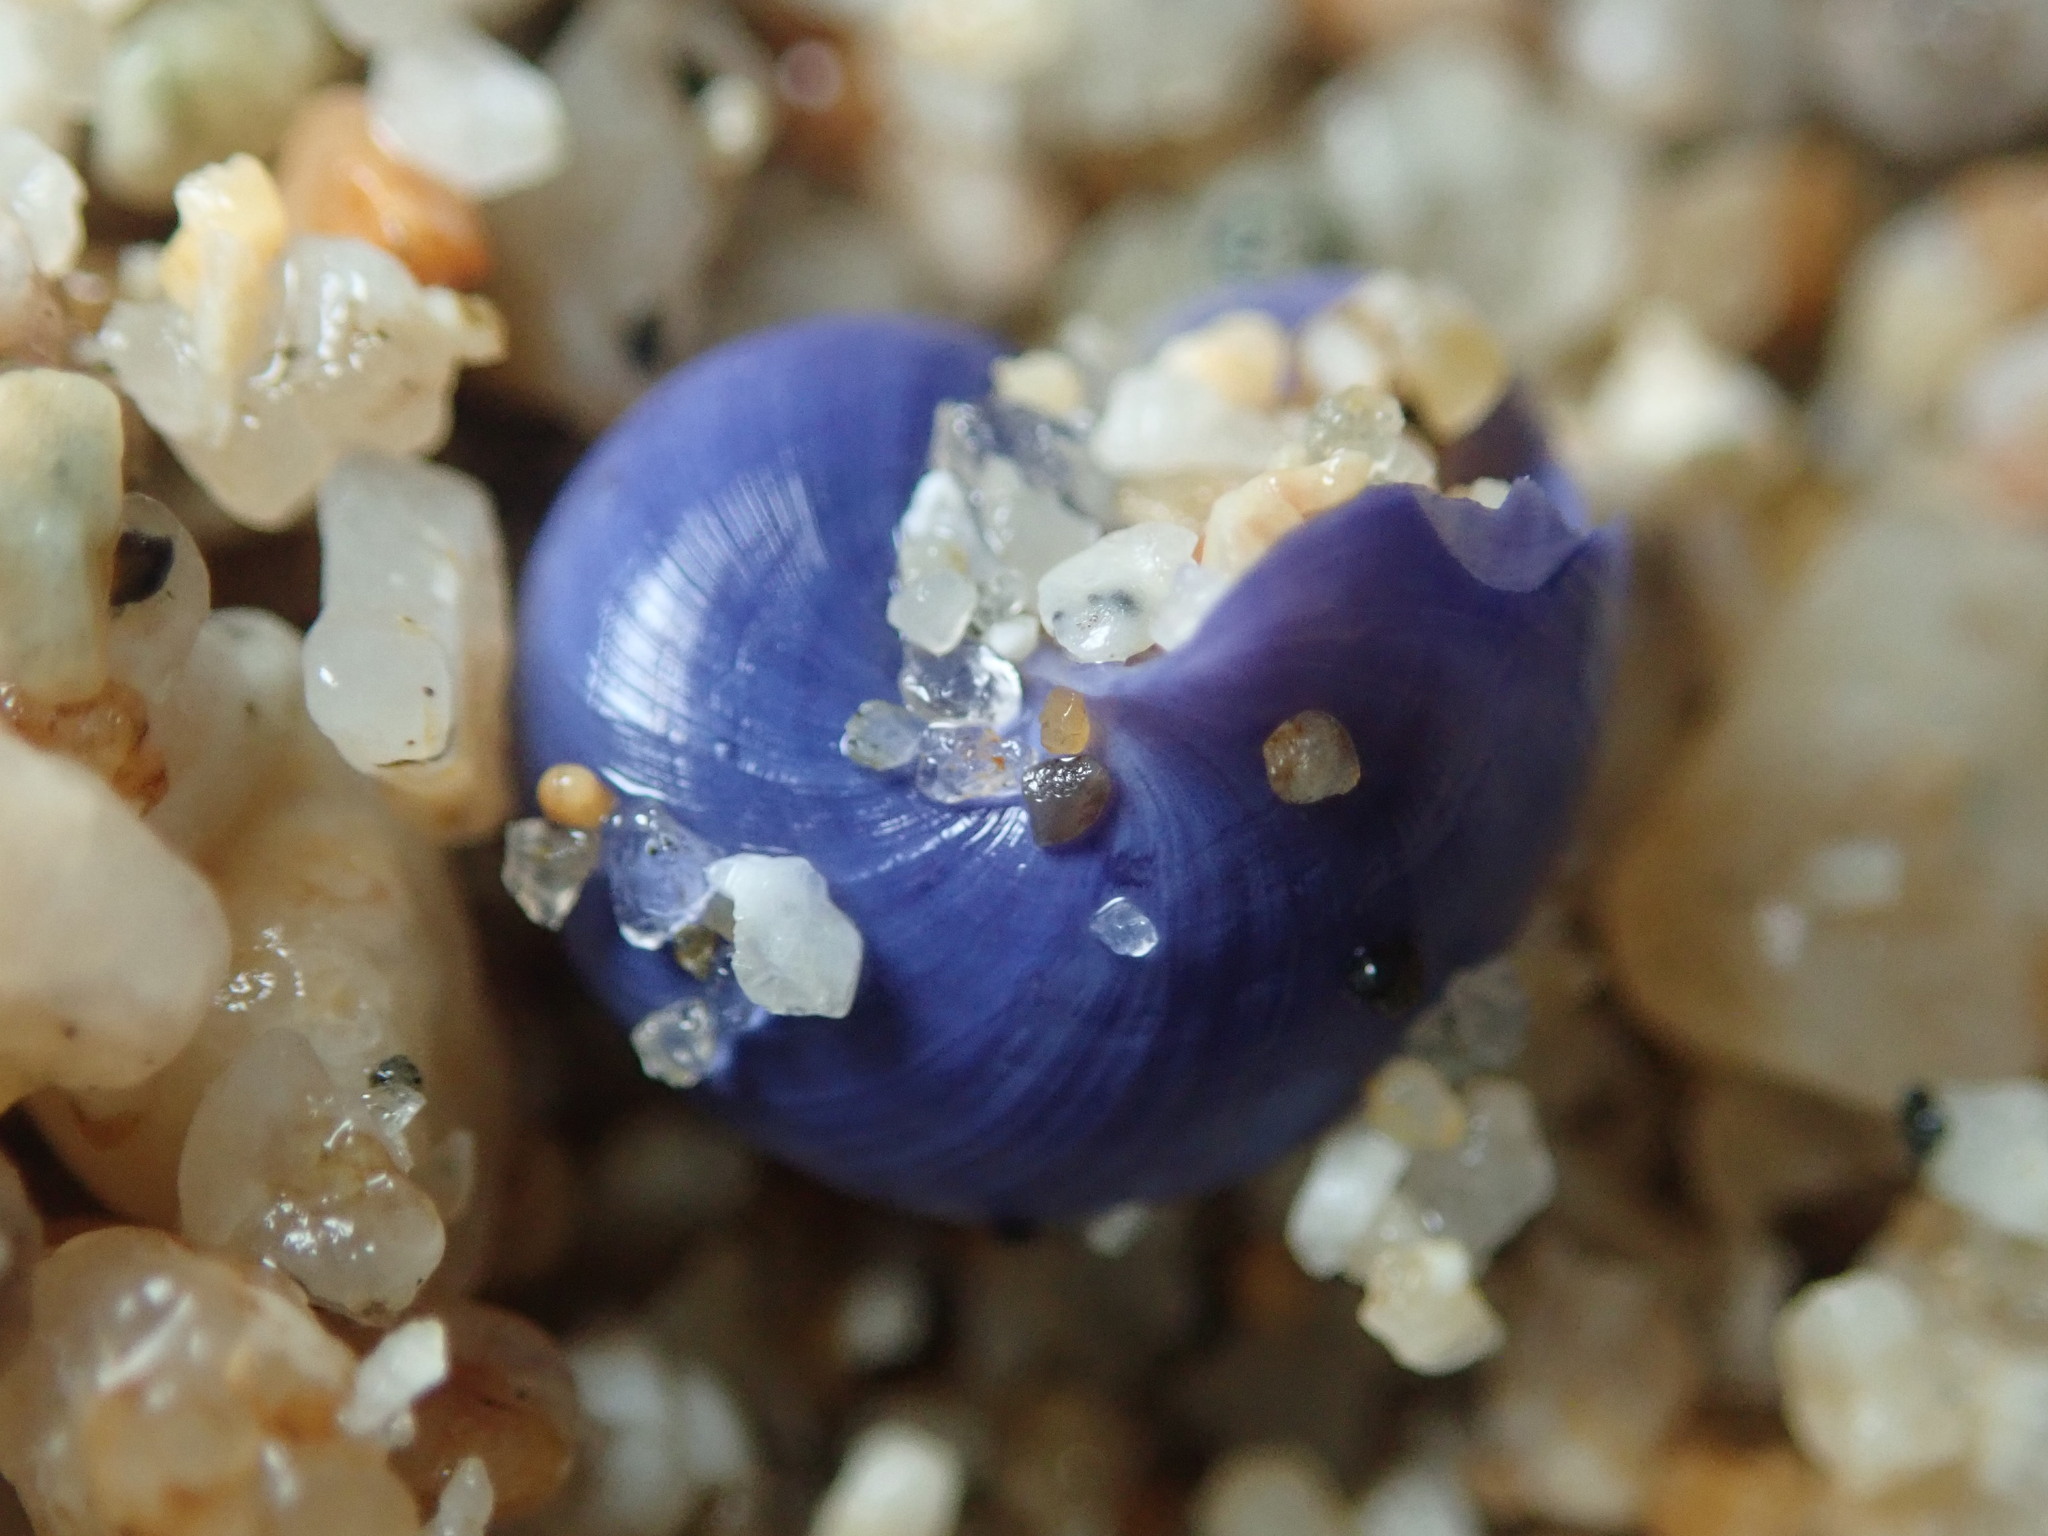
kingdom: Animalia
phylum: Mollusca
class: Gastropoda
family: Epitoniidae
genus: Janthina
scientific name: Janthina umbilicata
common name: Elongate janthina
